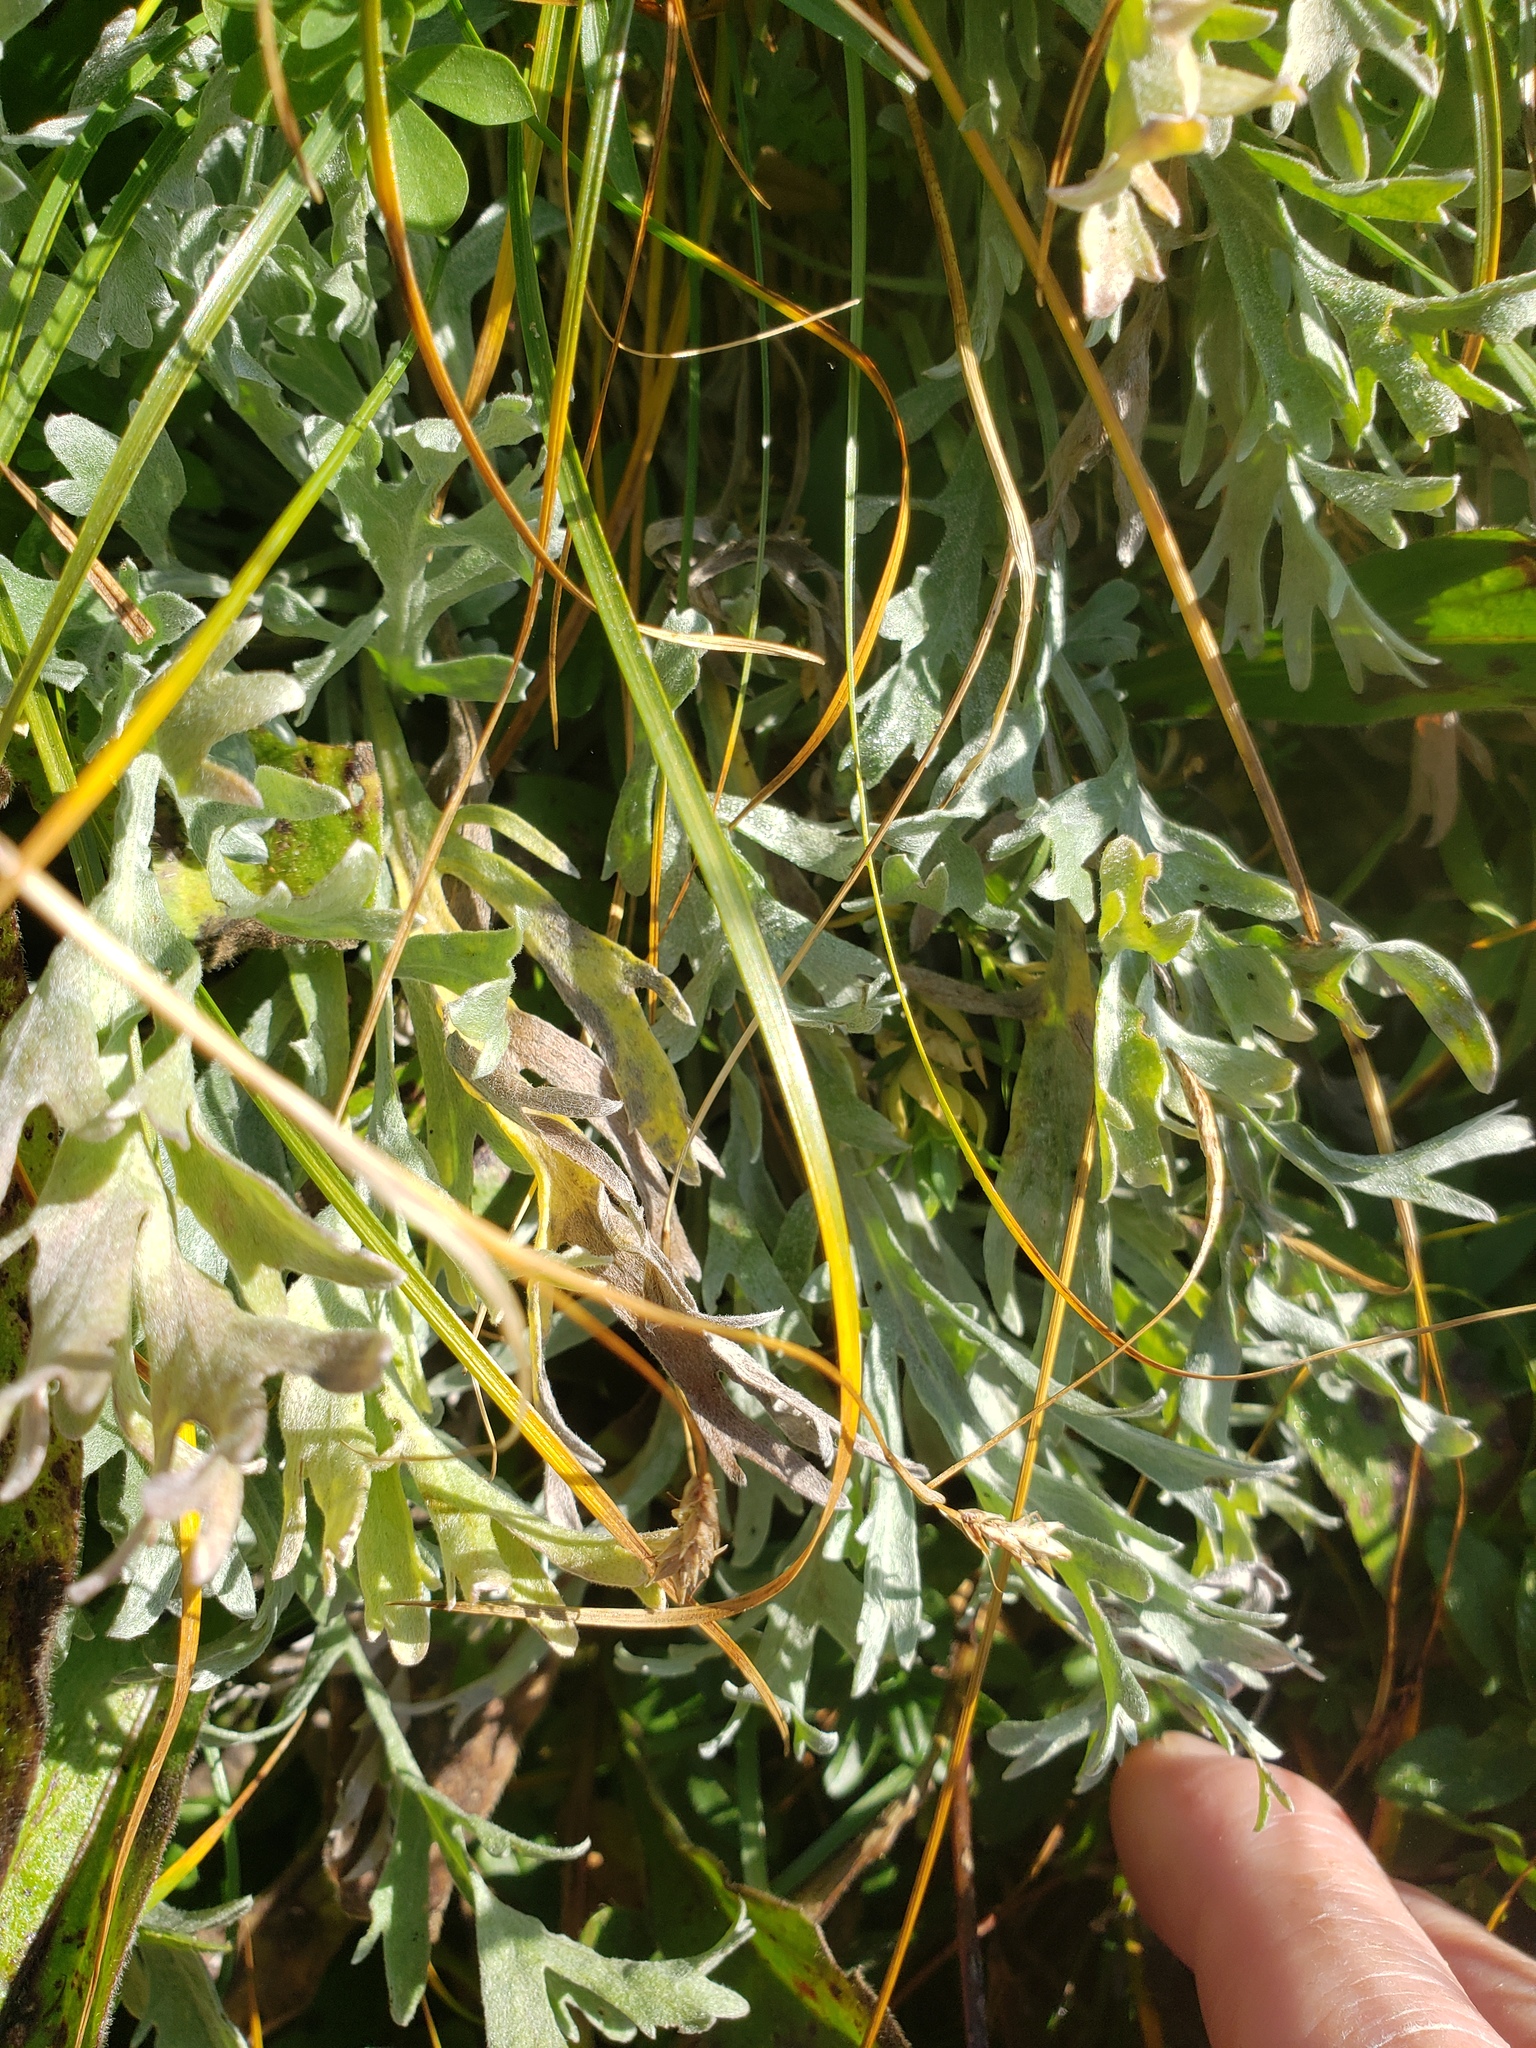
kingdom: Plantae
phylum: Tracheophyta
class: Magnoliopsida
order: Asterales
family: Asteraceae
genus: Achillea
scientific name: Achillea clavennae
